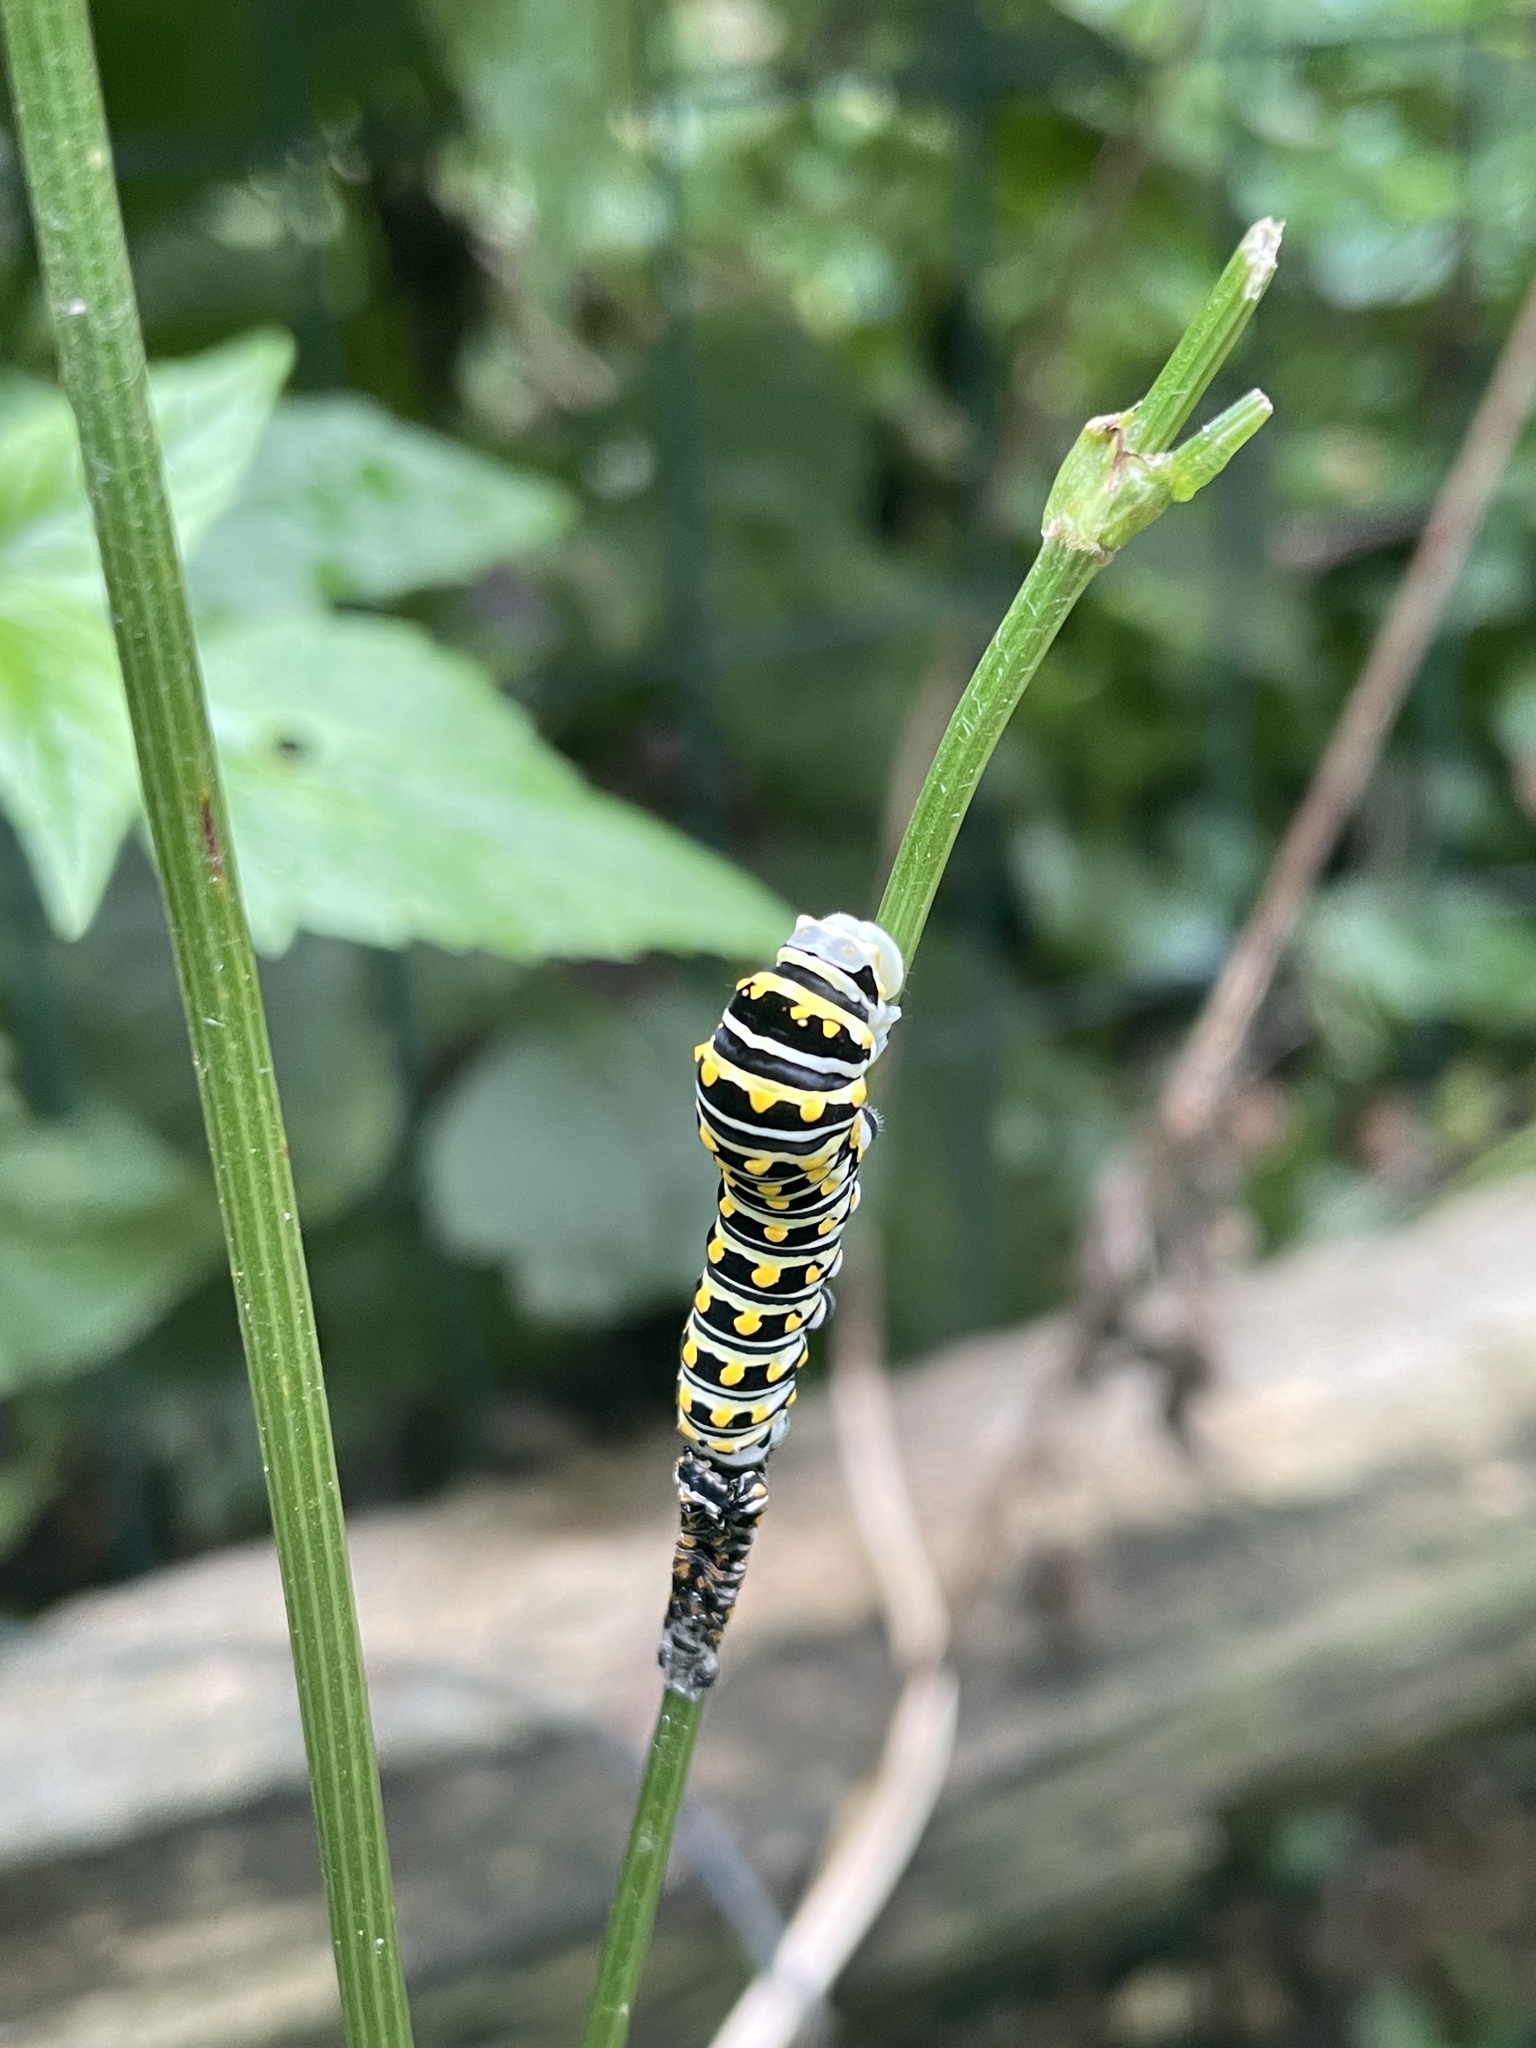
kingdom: Animalia
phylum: Arthropoda
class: Insecta
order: Lepidoptera
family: Papilionidae
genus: Papilio
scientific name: Papilio polyxenes
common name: Black swallowtail
